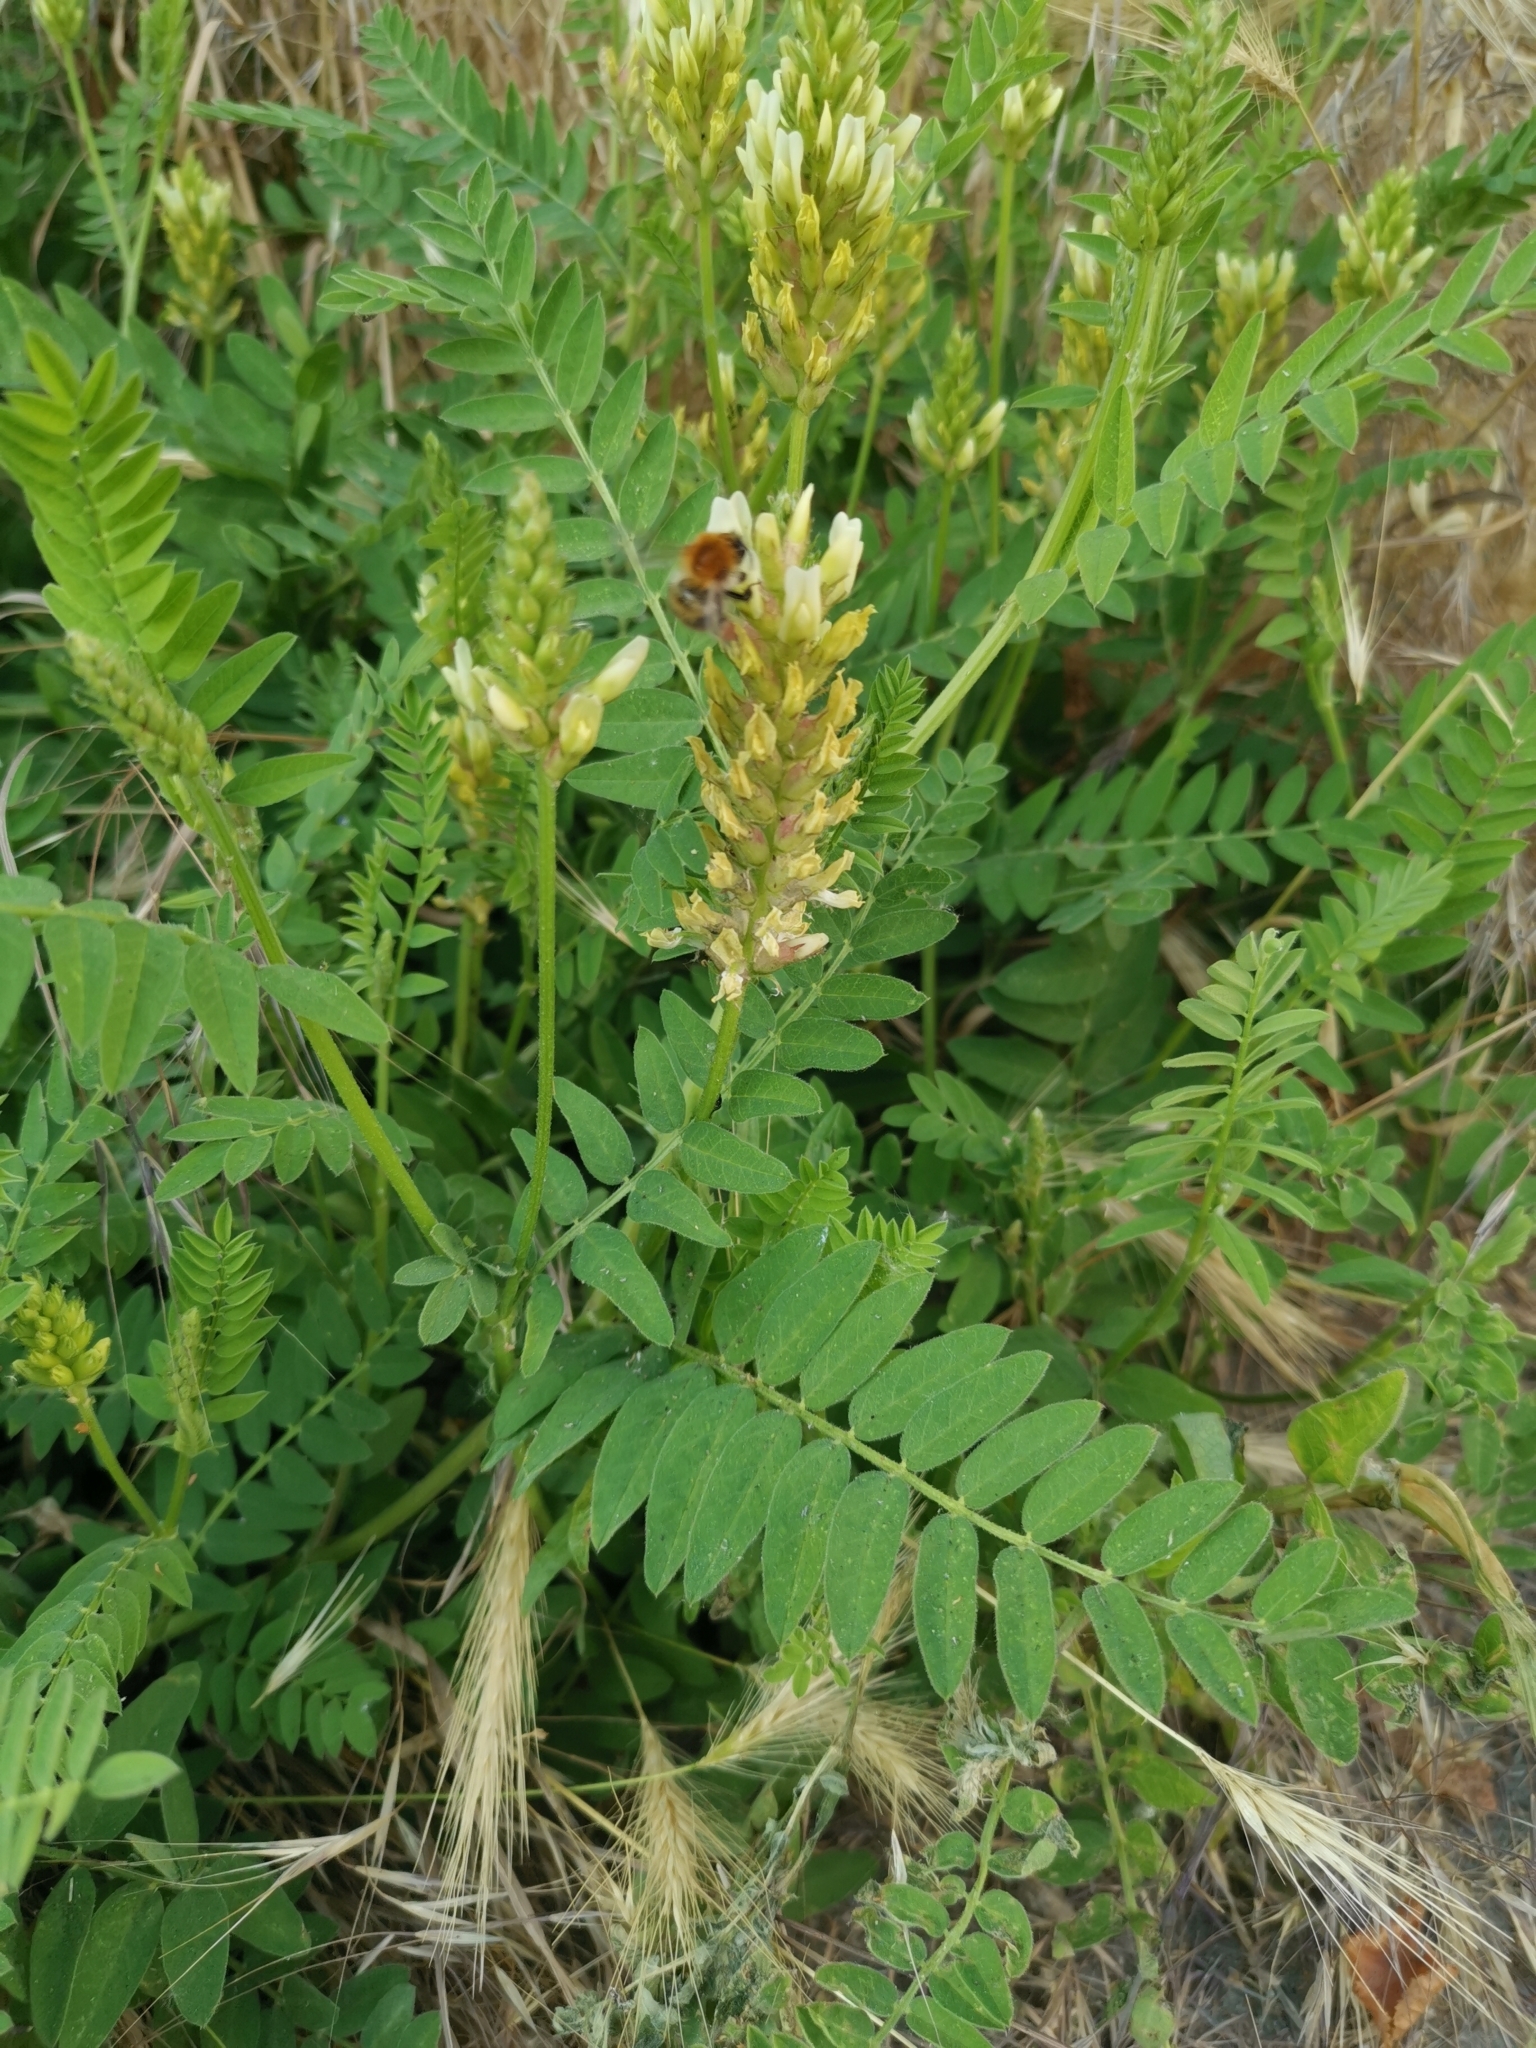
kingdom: Plantae
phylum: Tracheophyta
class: Magnoliopsida
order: Fabales
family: Fabaceae
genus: Astragalus
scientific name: Astragalus cicer
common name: Chick-pea milk-vetch
